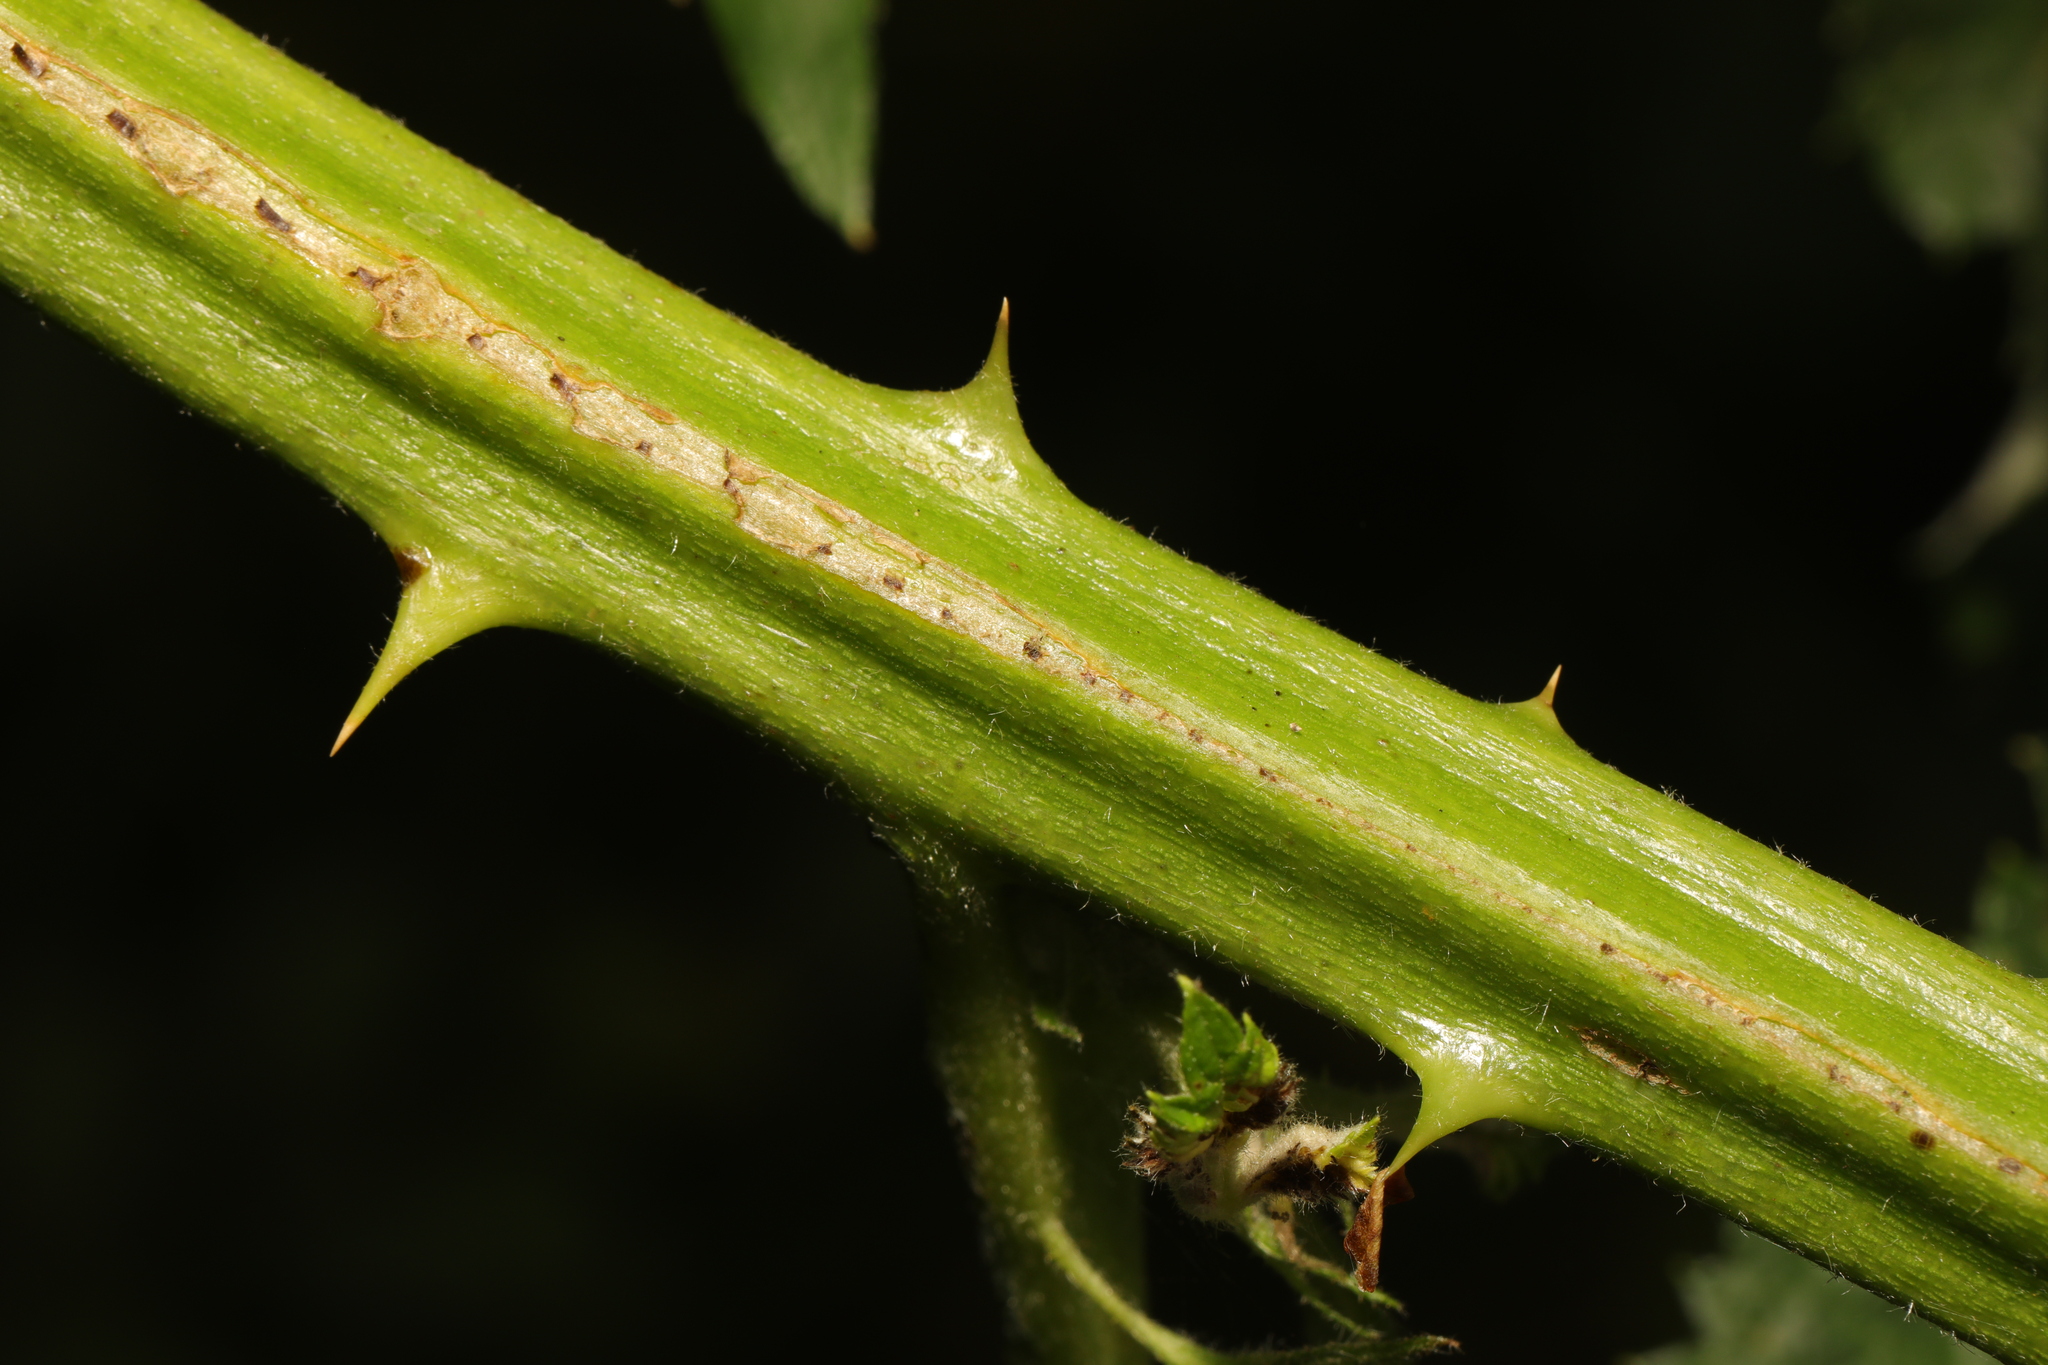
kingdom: Plantae
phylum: Tracheophyta
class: Magnoliopsida
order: Rosales
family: Rosaceae
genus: Rubus
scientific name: Rubus armeniacus
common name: Himalayan blackberry
